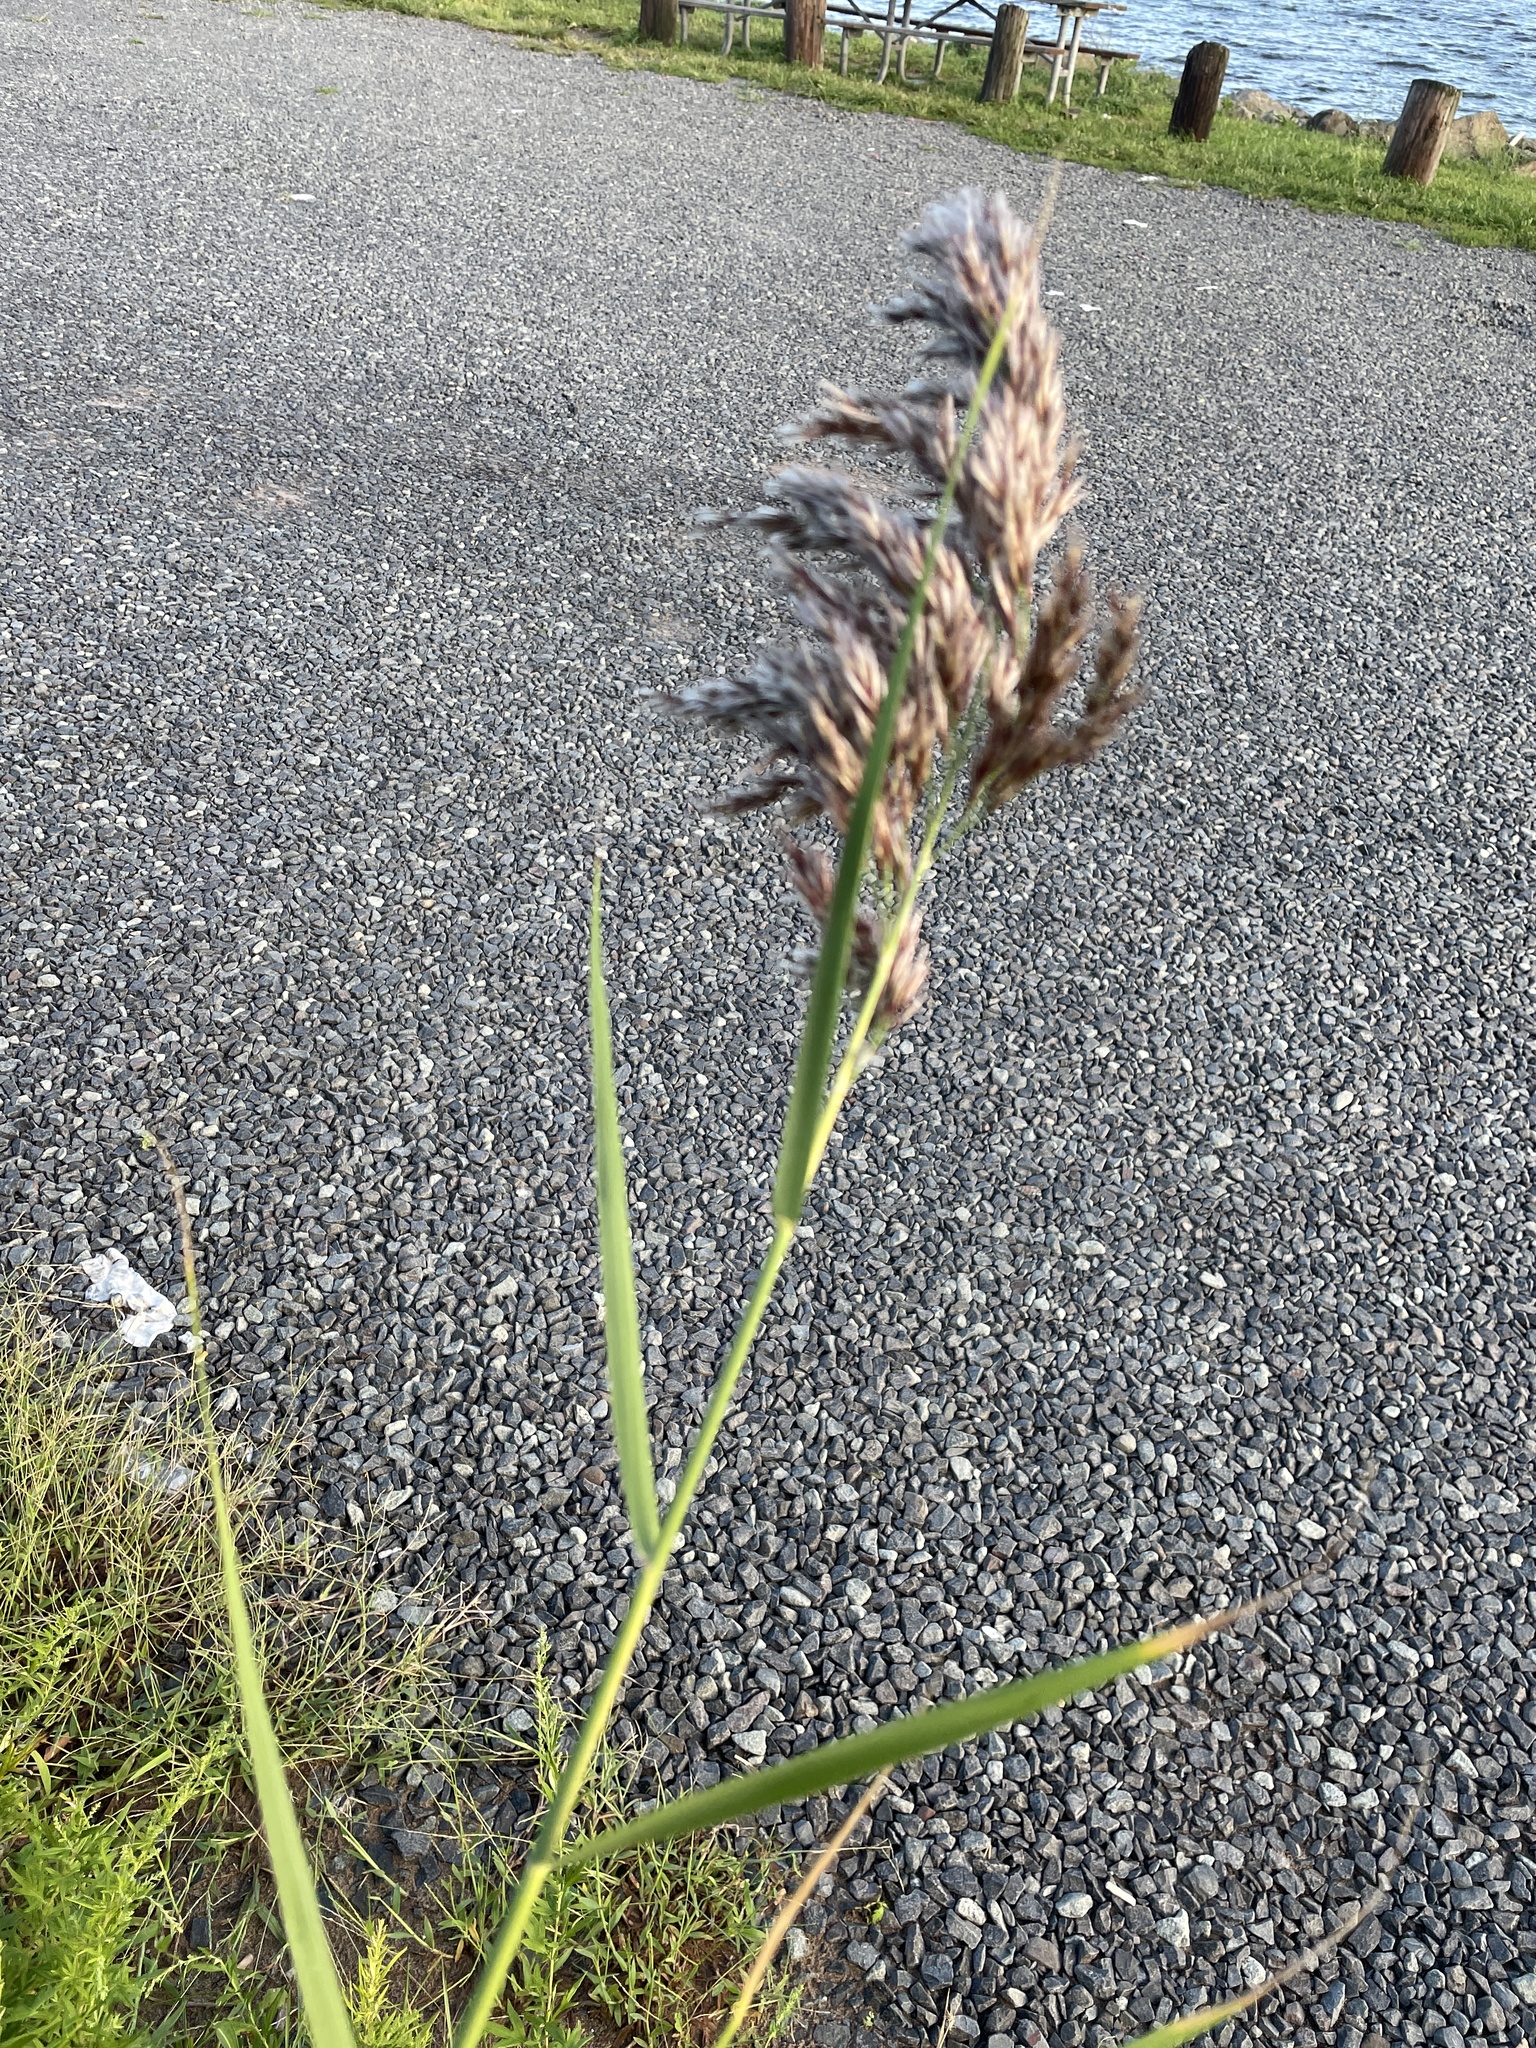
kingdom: Plantae
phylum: Tracheophyta
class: Liliopsida
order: Poales
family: Poaceae
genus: Phragmites
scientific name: Phragmites australis
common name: Common reed
